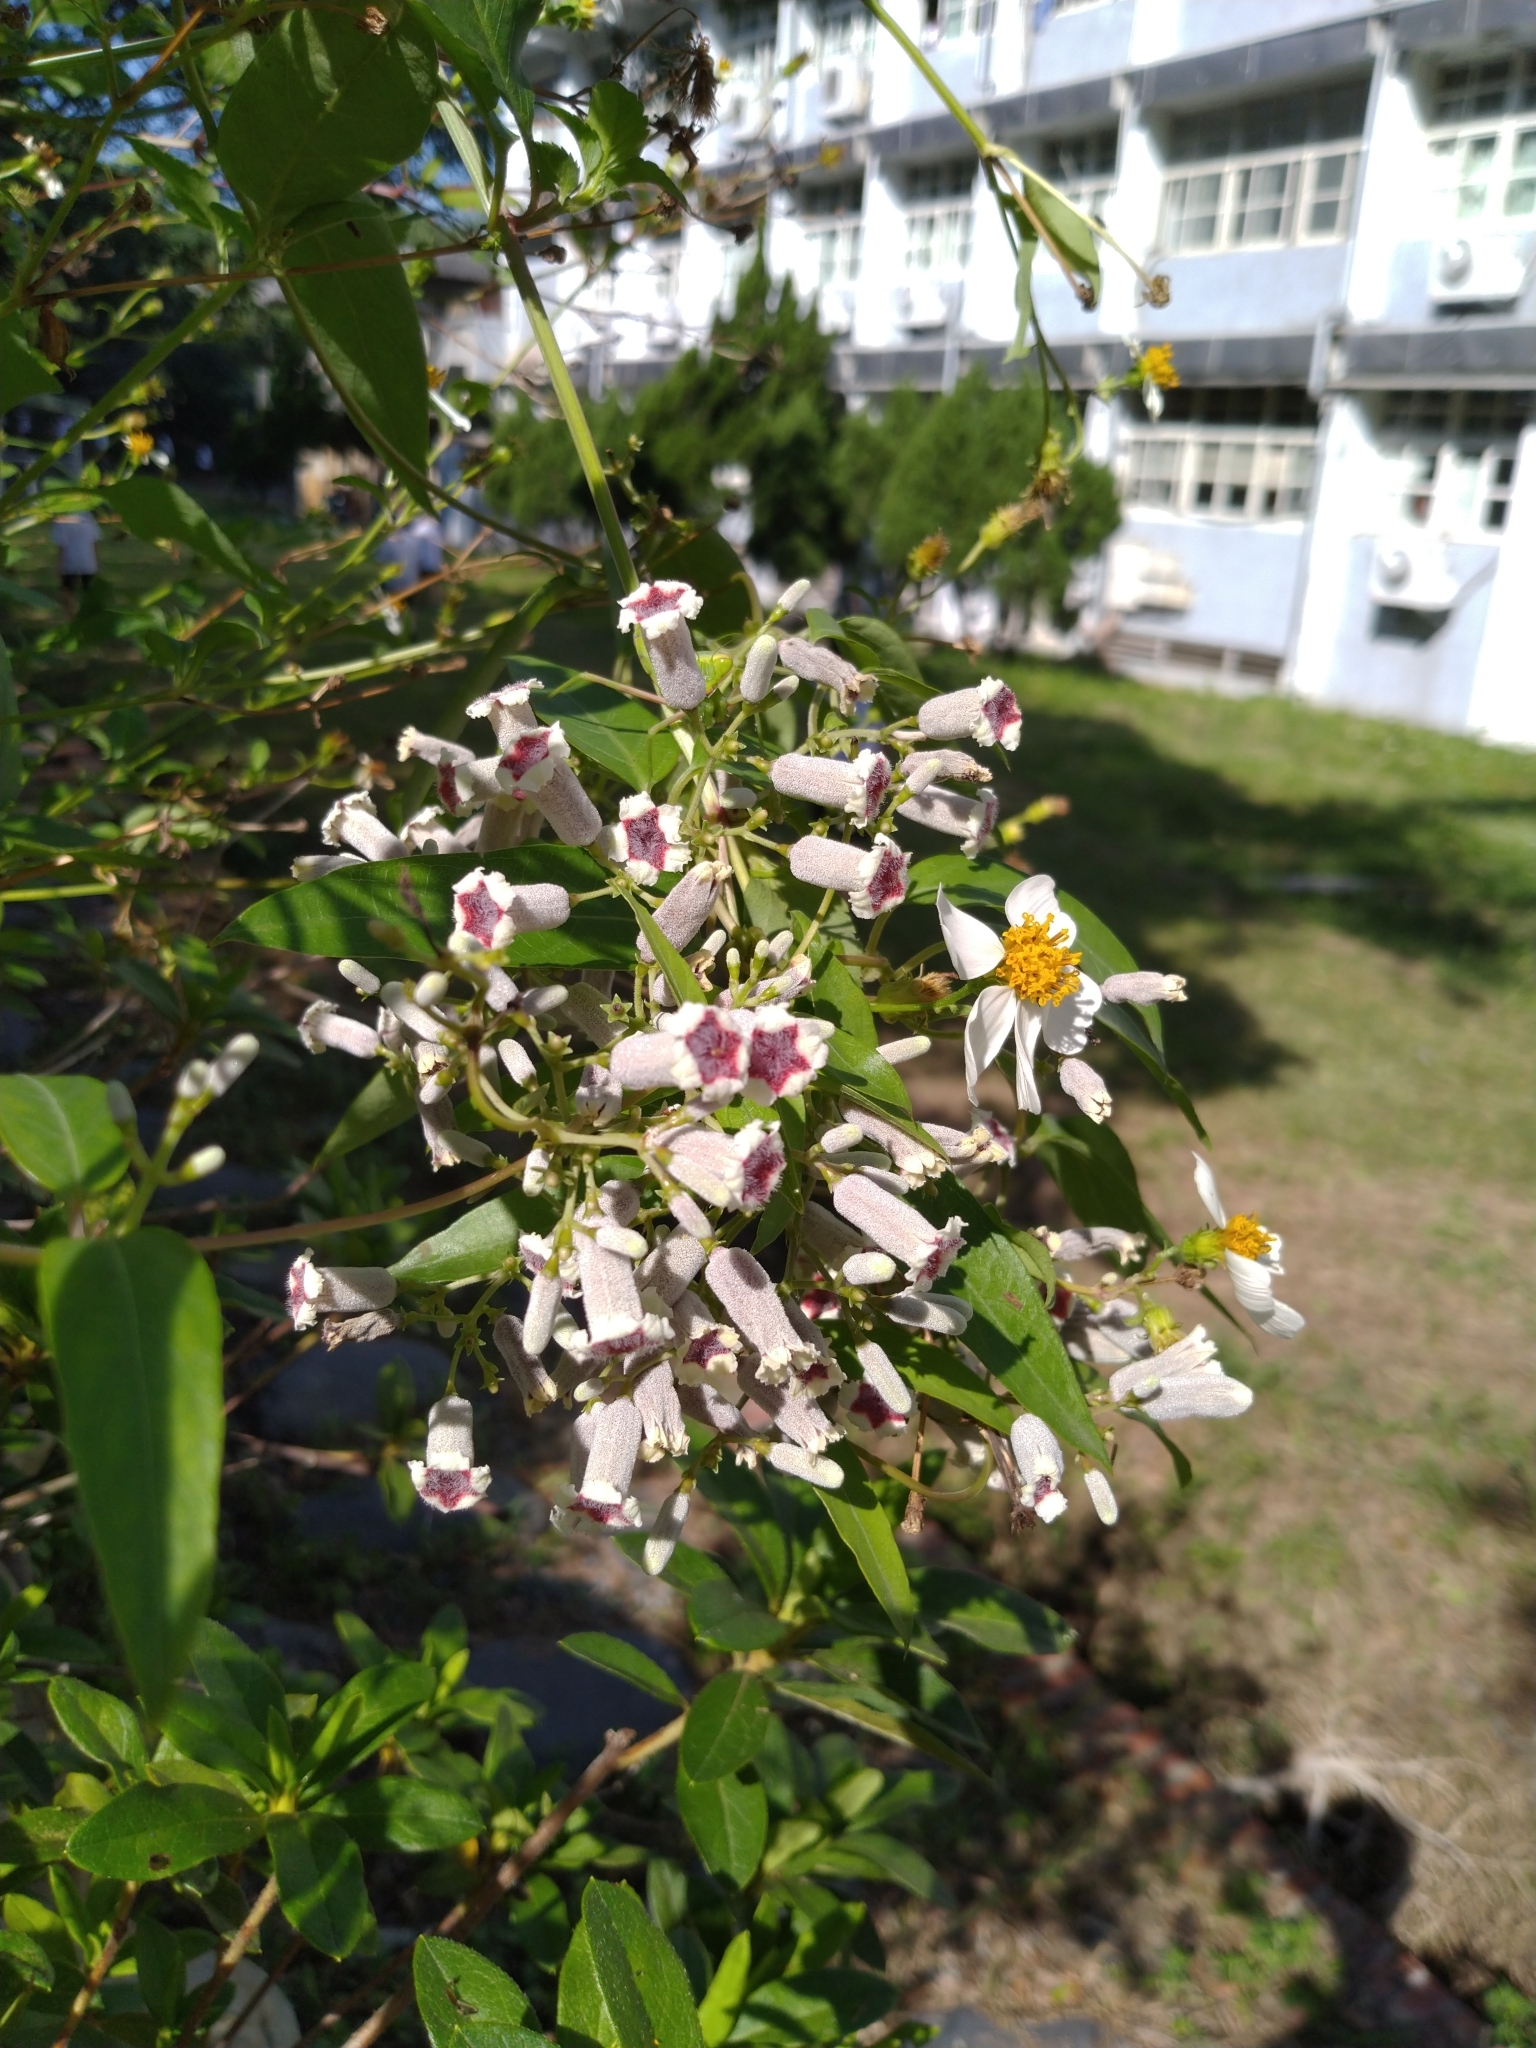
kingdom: Plantae
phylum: Tracheophyta
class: Magnoliopsida
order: Gentianales
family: Rubiaceae
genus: Paederia
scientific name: Paederia foetida
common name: Stinkvine
